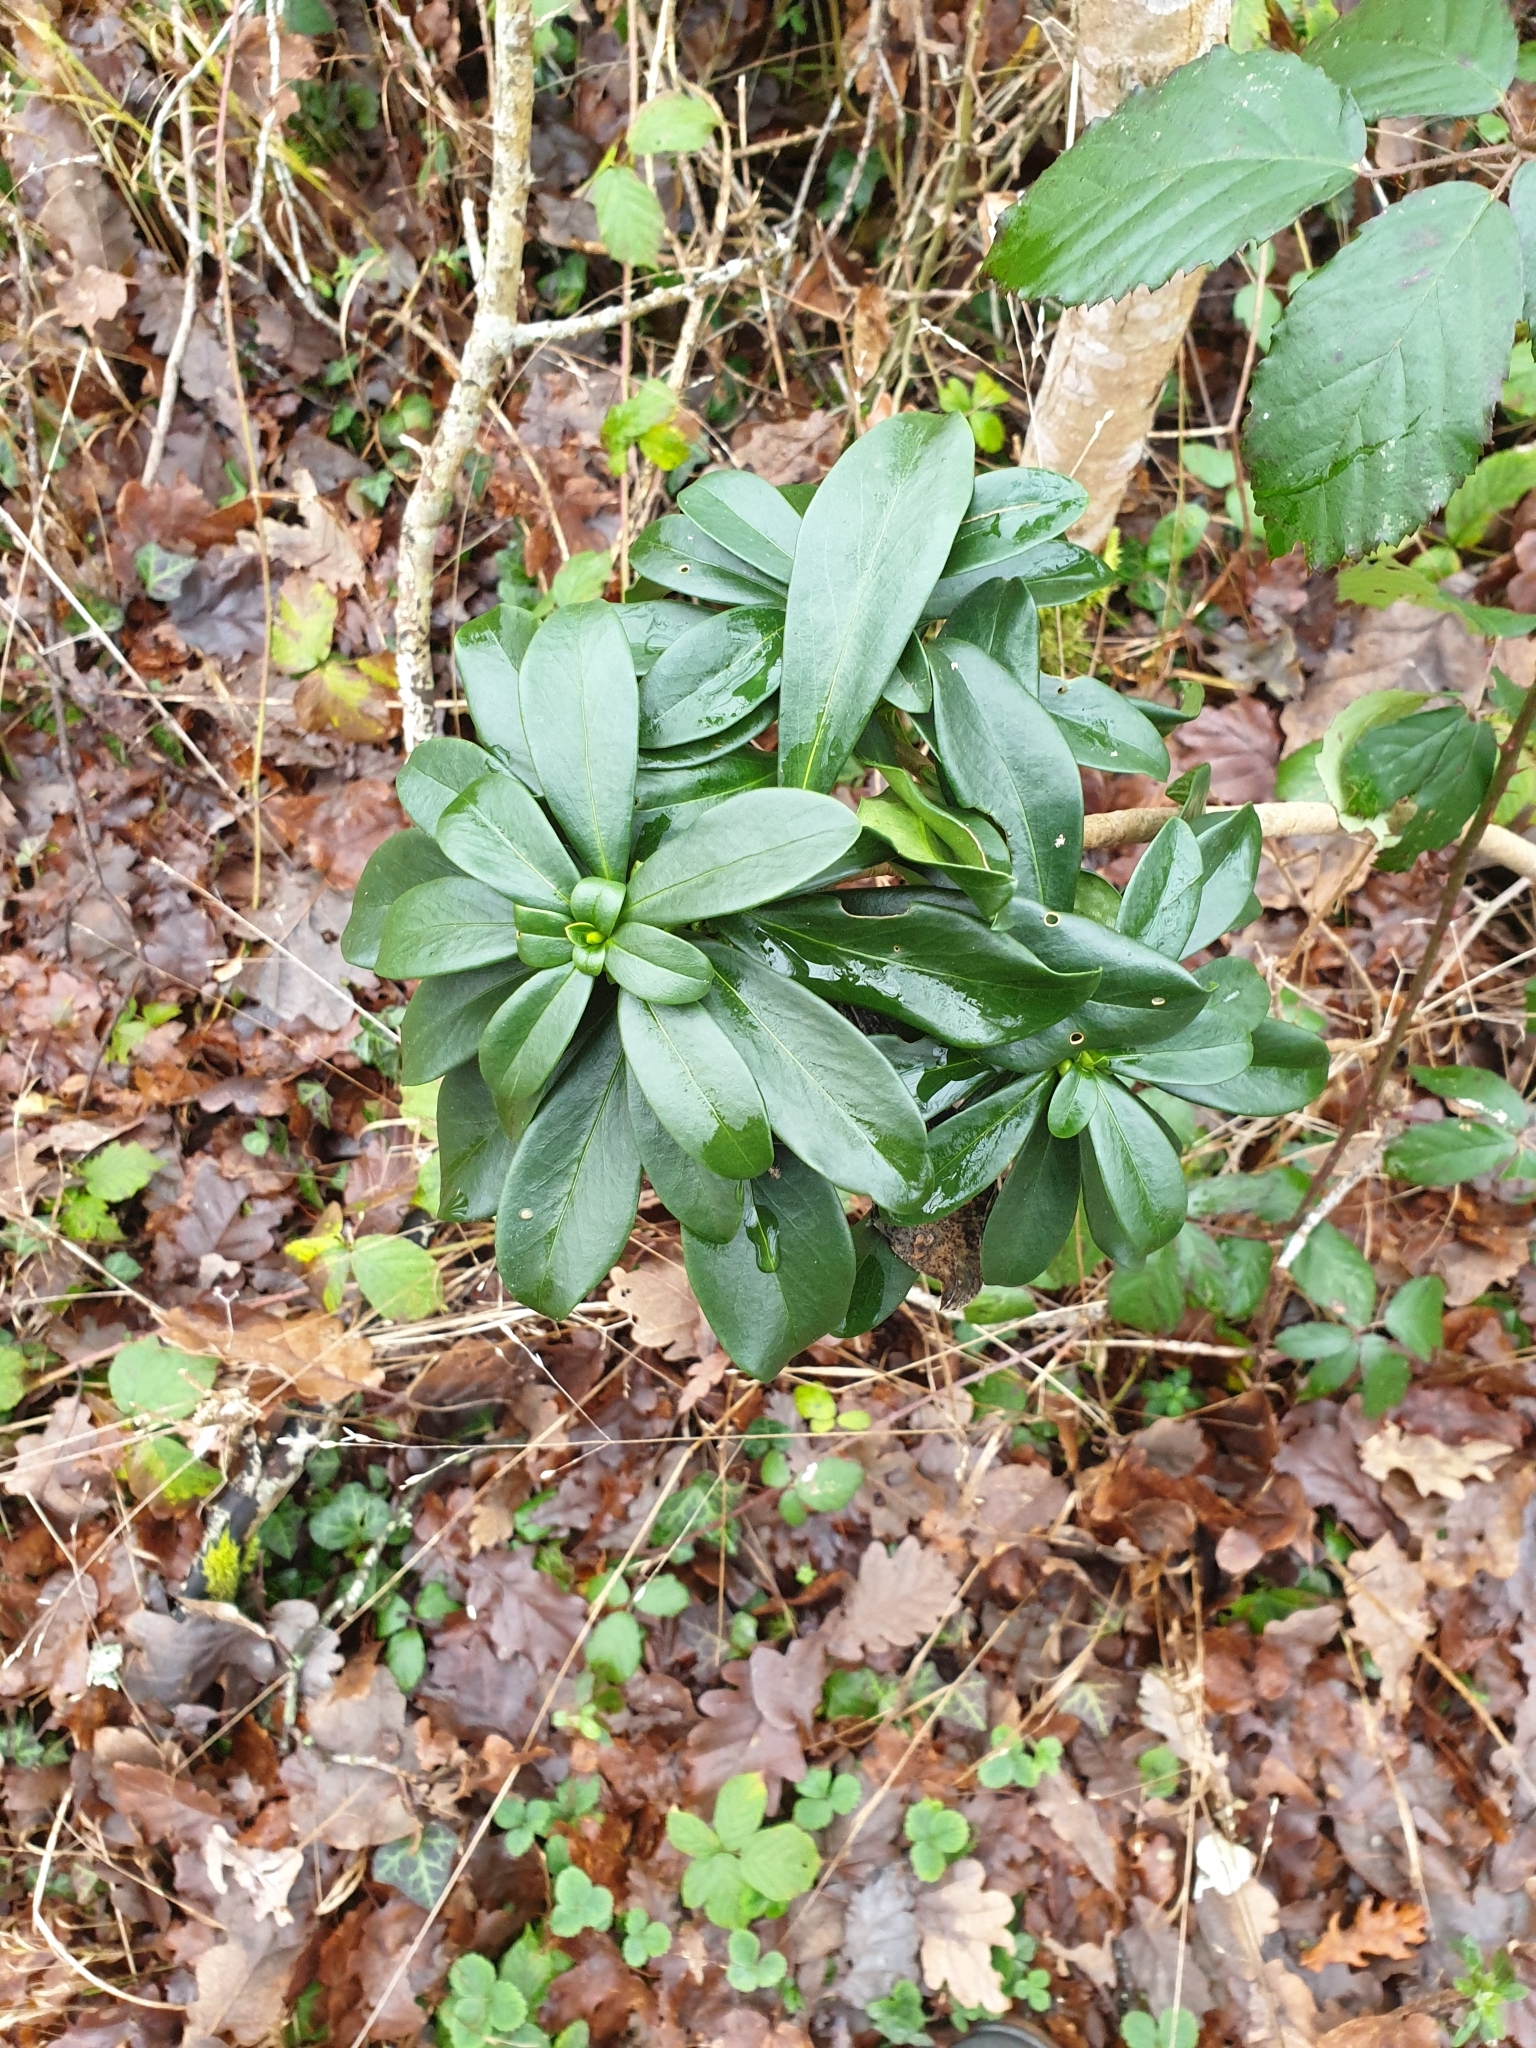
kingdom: Plantae
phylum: Tracheophyta
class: Magnoliopsida
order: Malvales
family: Thymelaeaceae
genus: Daphne
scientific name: Daphne laureola
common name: Spurge-laurel
